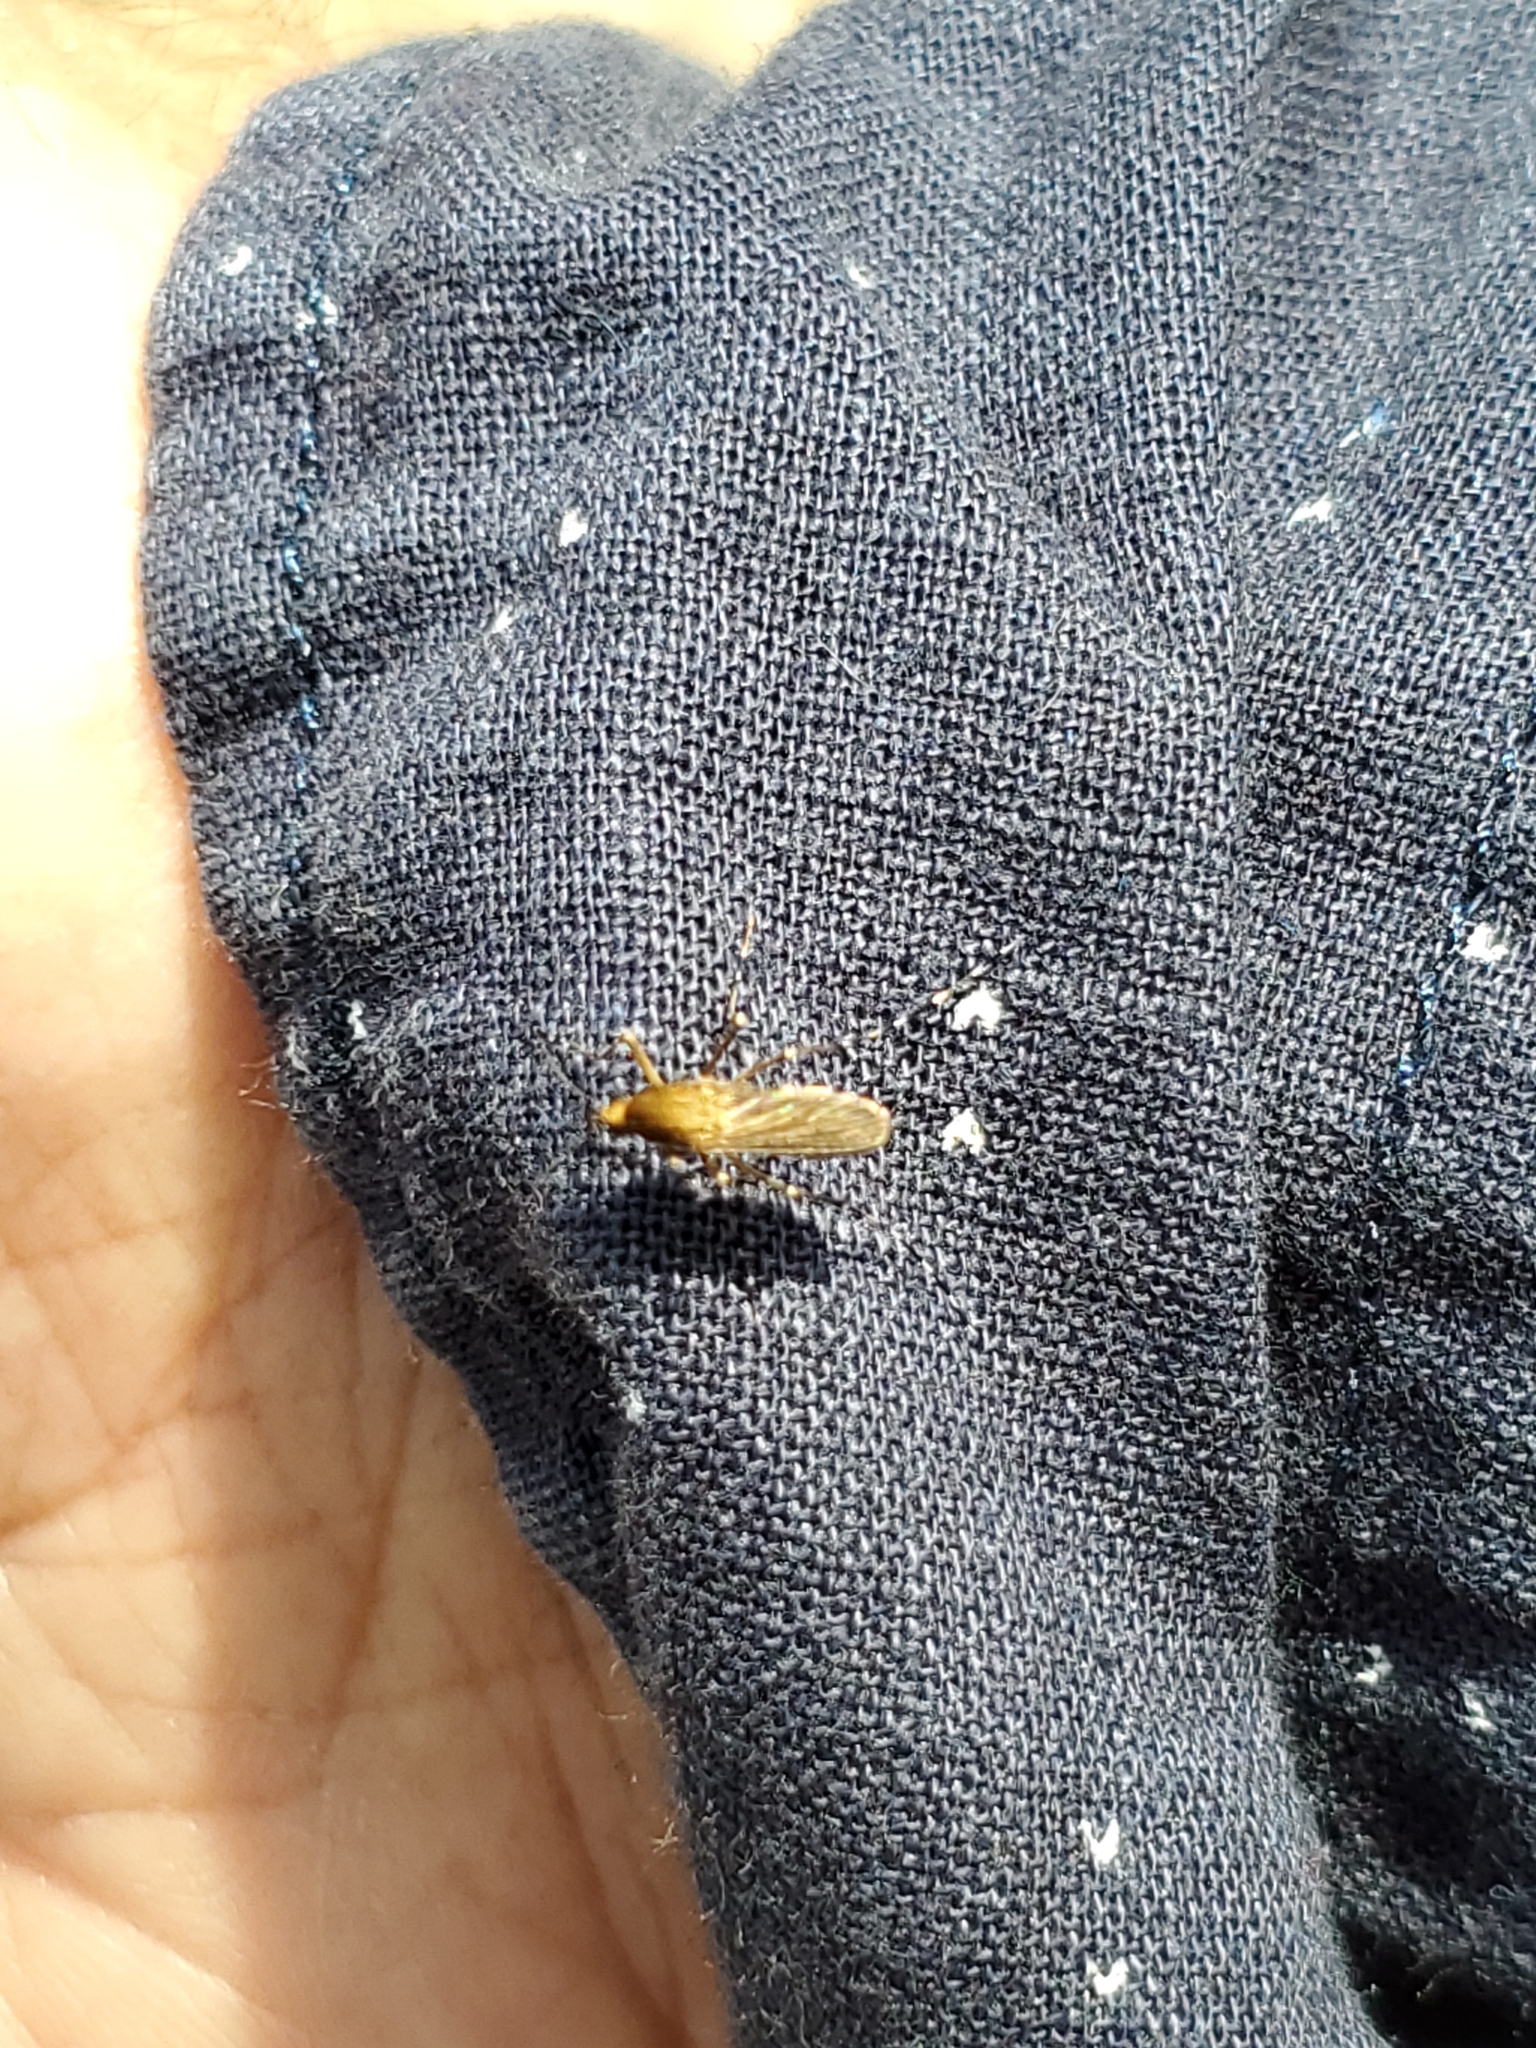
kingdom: Animalia
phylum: Arthropoda
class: Insecta
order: Diptera
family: Culicidae
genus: Aedes
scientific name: Aedes sollicitans
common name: Saltmarsh mosquito
